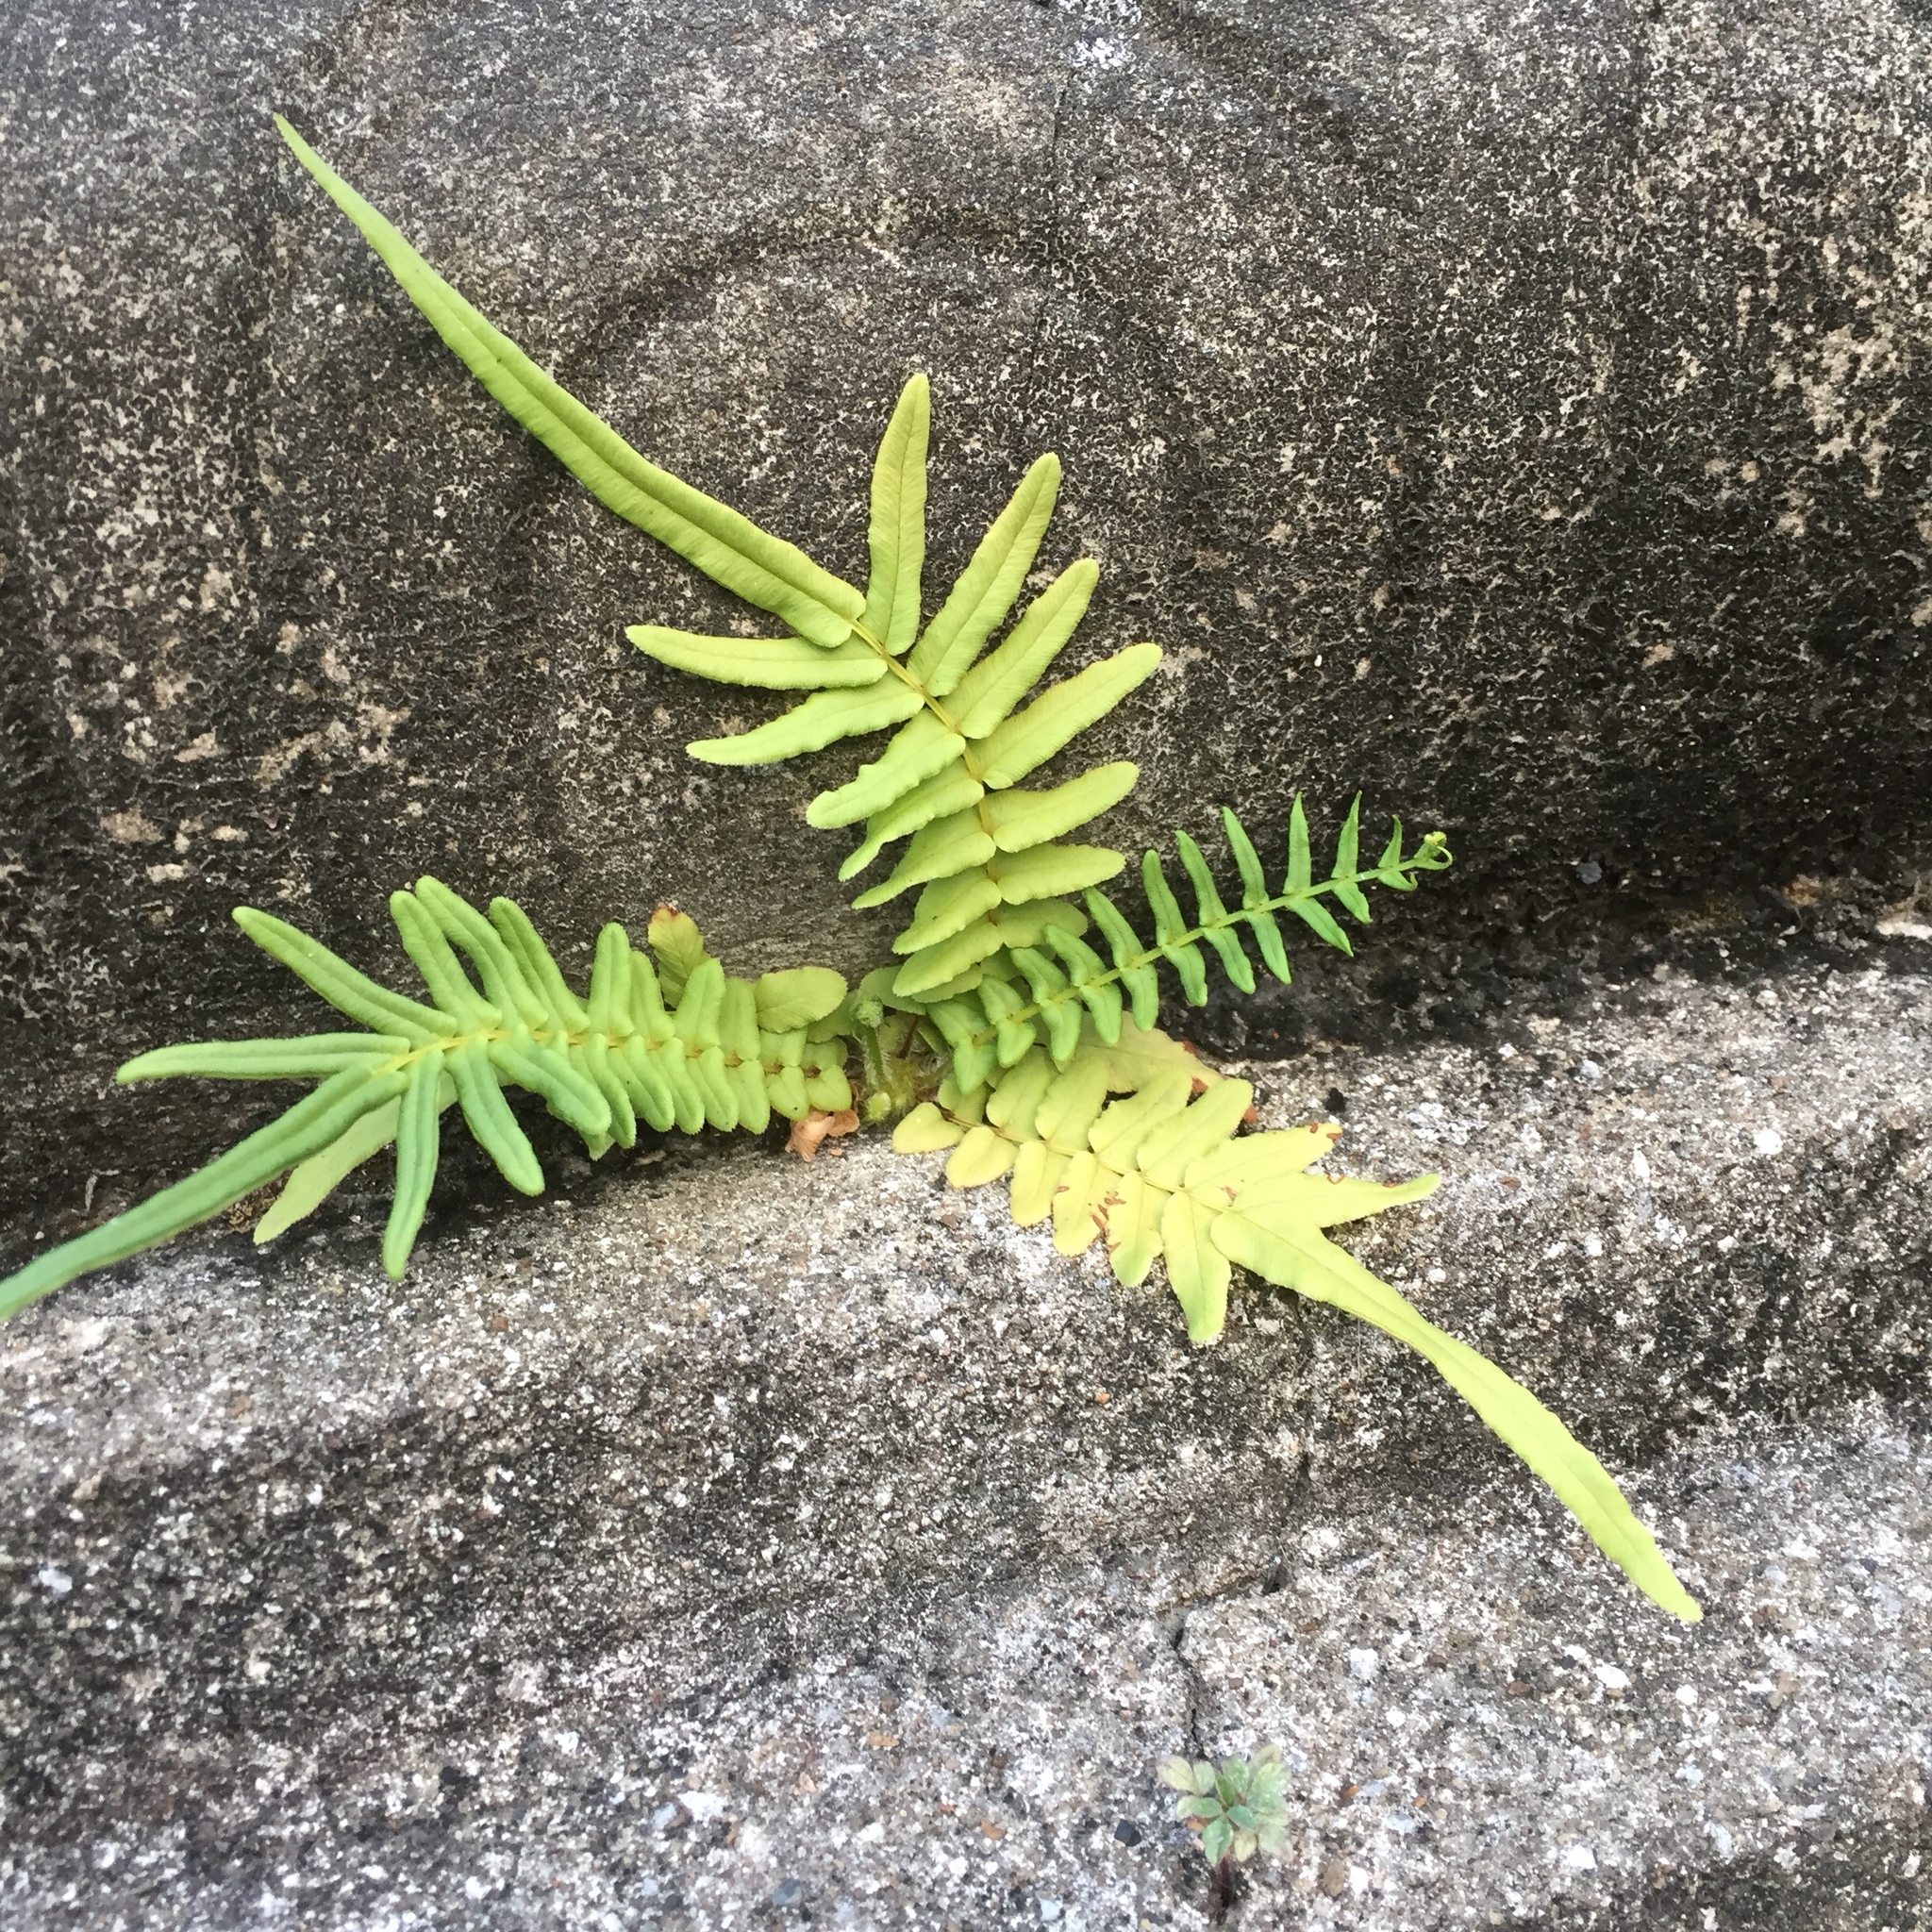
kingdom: Plantae
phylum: Tracheophyta
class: Polypodiopsida
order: Polypodiales
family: Pteridaceae
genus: Pteris
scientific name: Pteris vittata
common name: Ladder brake
